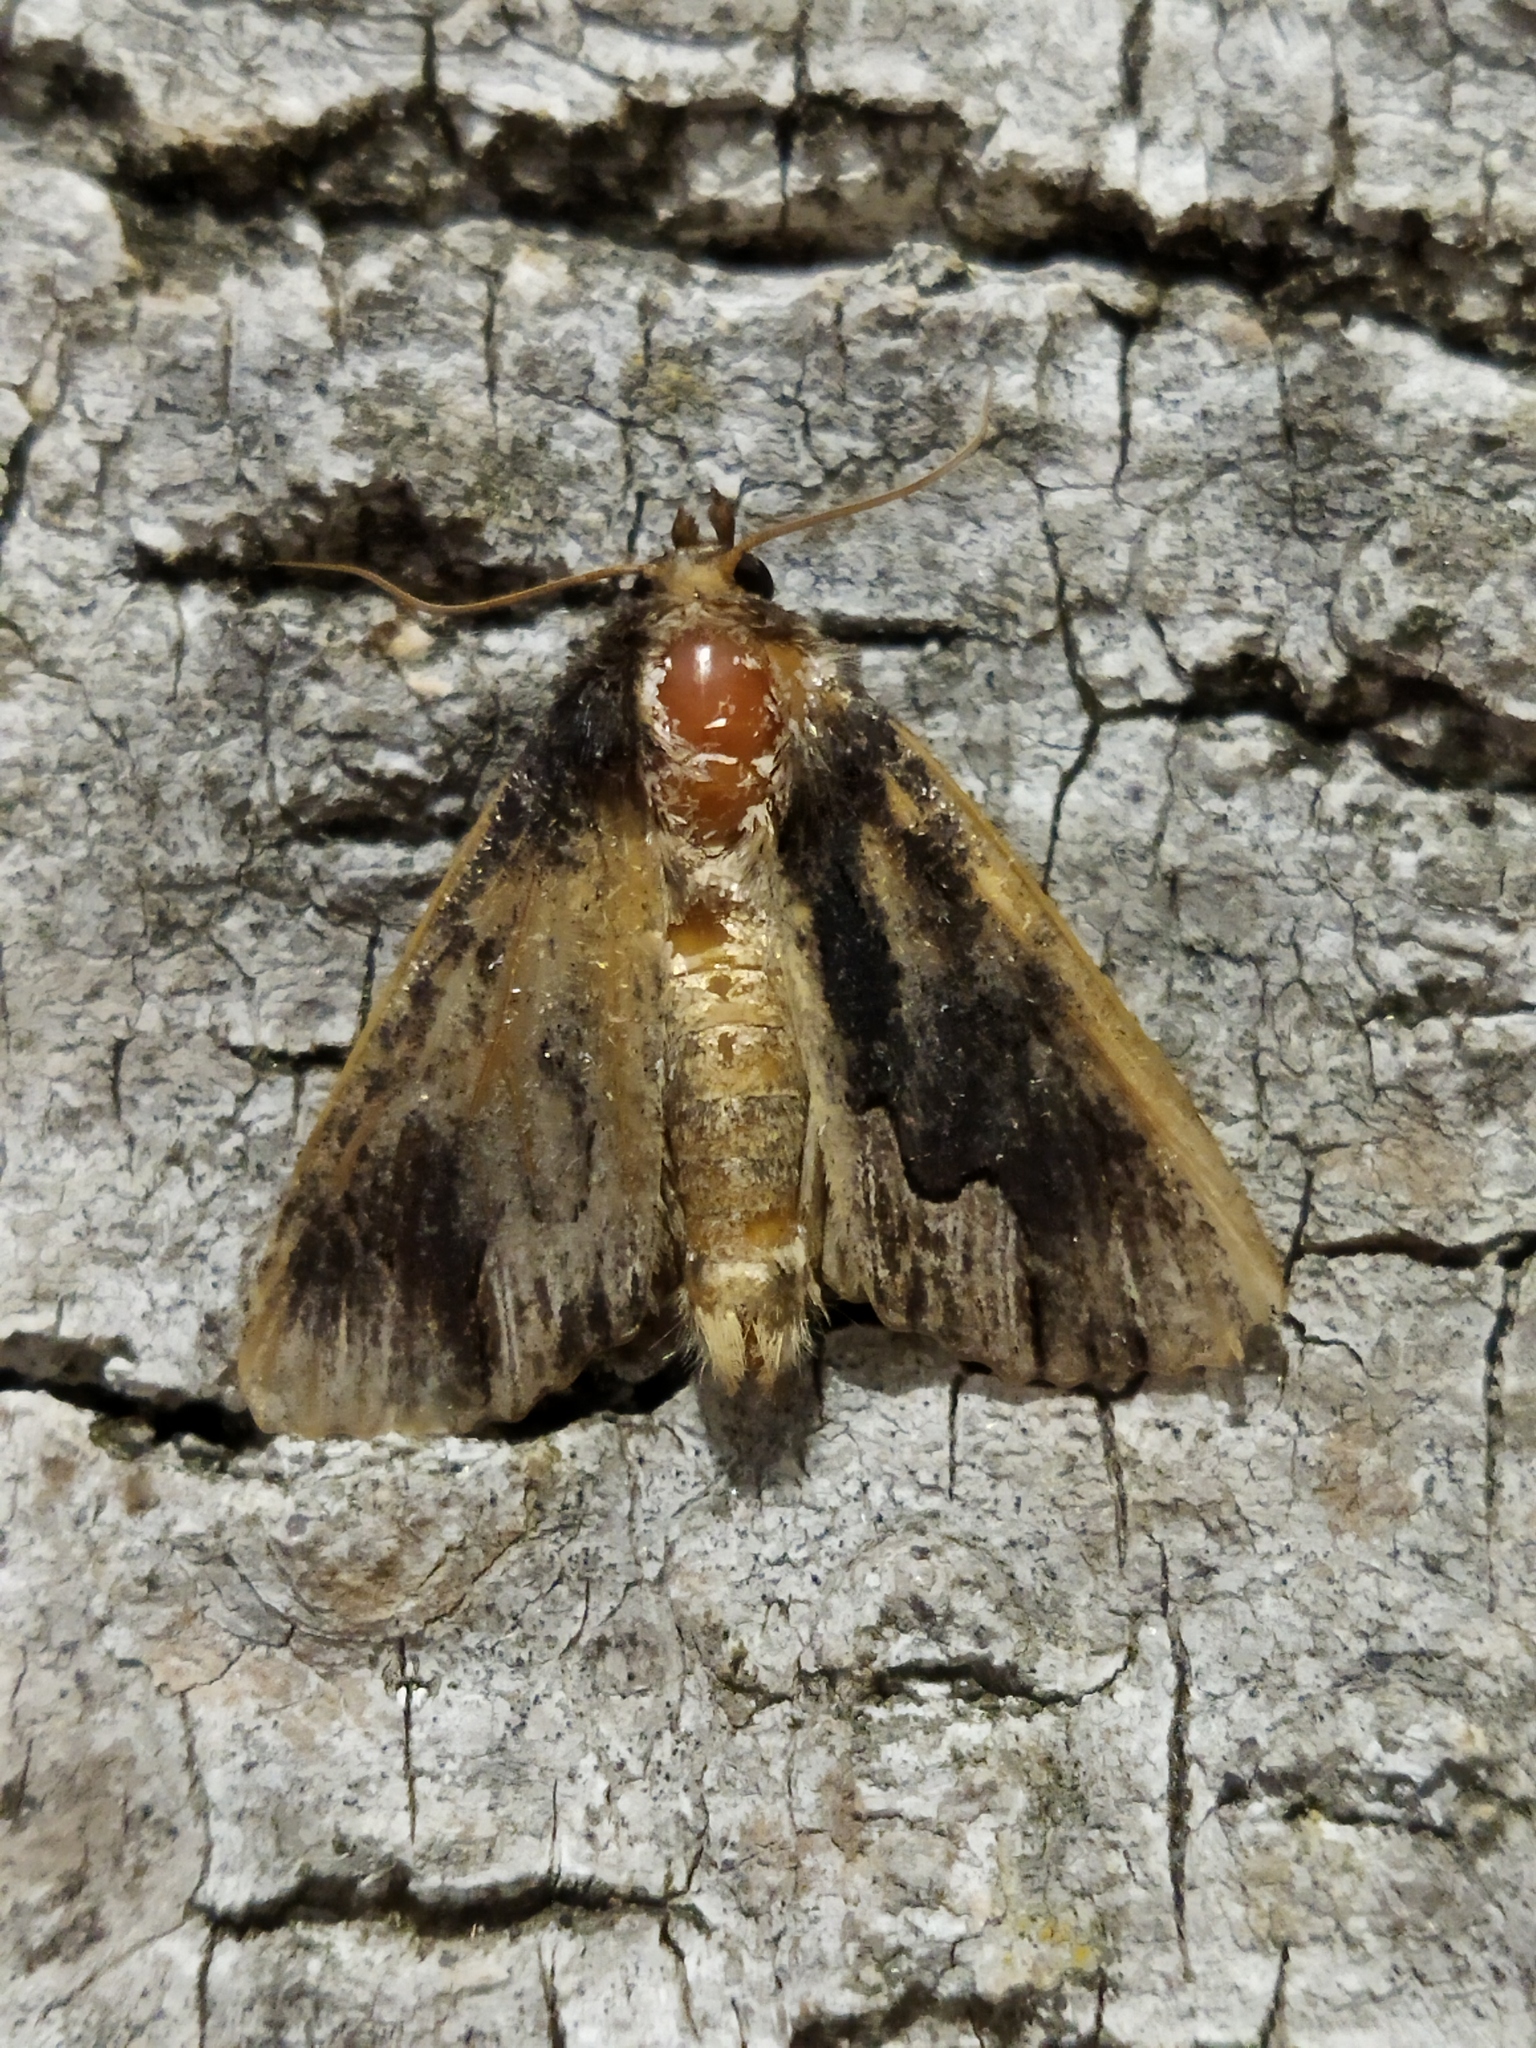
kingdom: Animalia
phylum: Arthropoda
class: Insecta
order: Lepidoptera
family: Noctuidae
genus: Dypterygia
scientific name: Dypterygia scabriuscula
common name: Bird's wing
